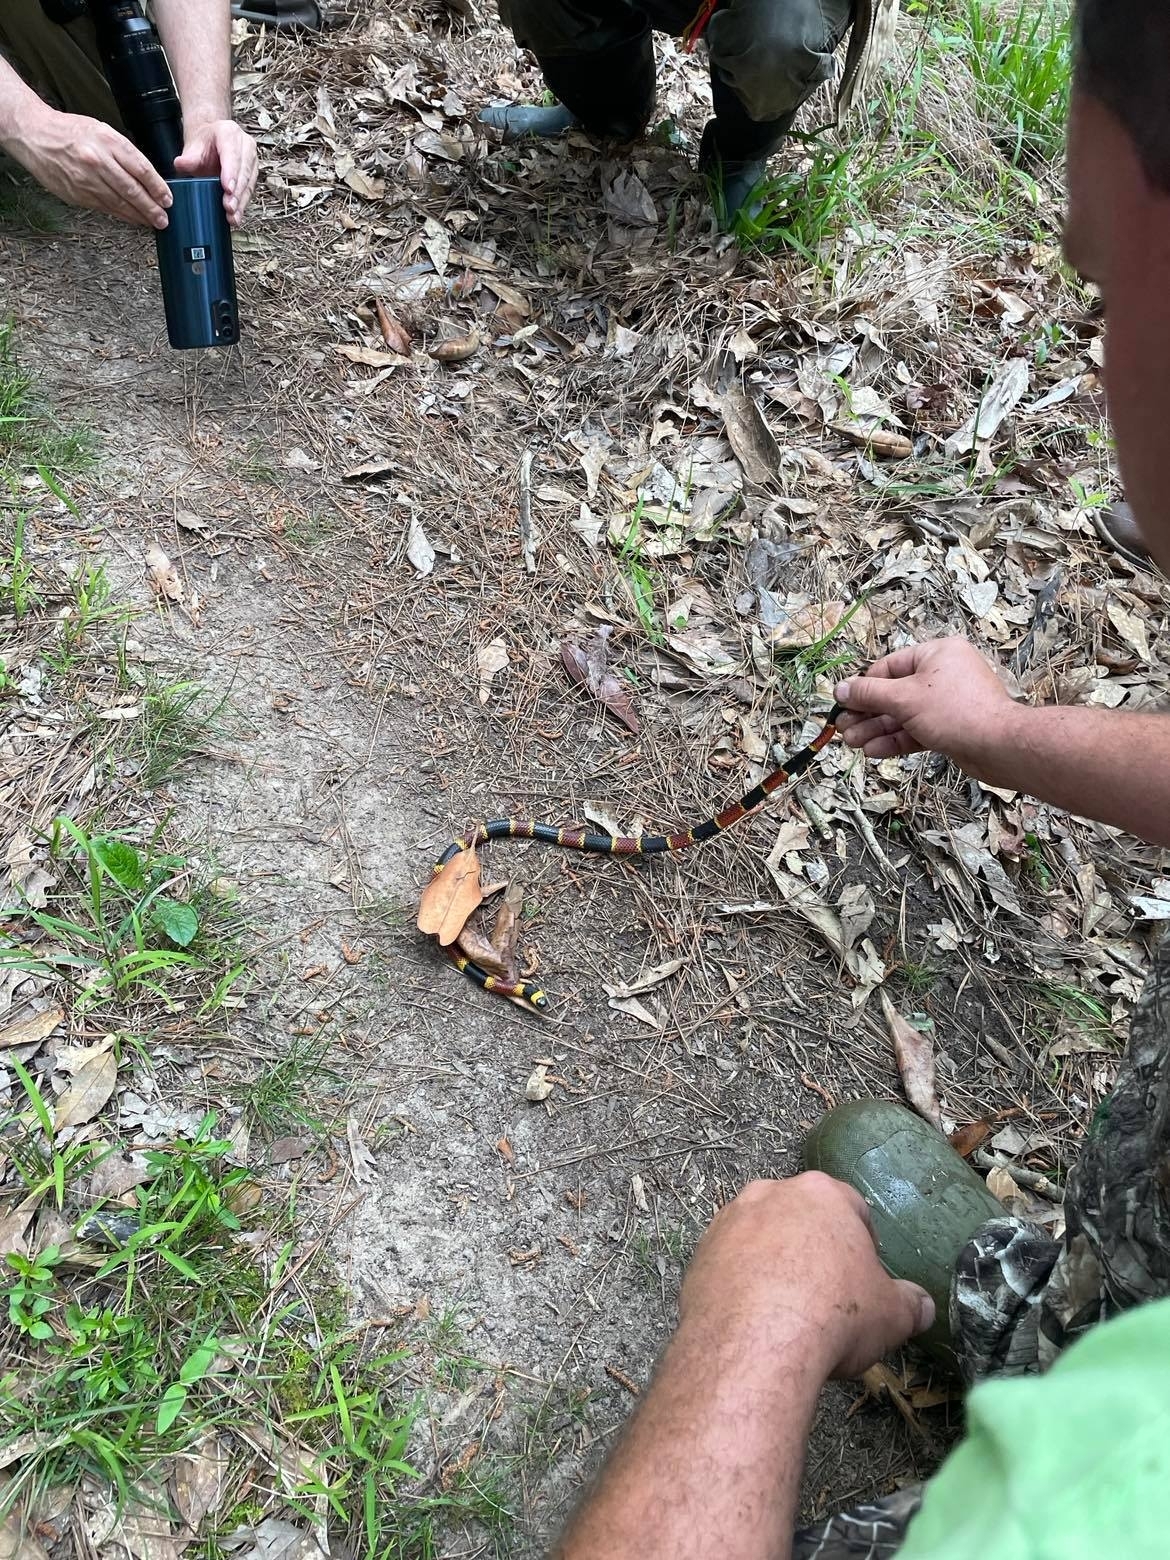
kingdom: Animalia
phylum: Chordata
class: Squamata
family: Elapidae
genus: Micrurus
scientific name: Micrurus tener
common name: Texas coral snake
